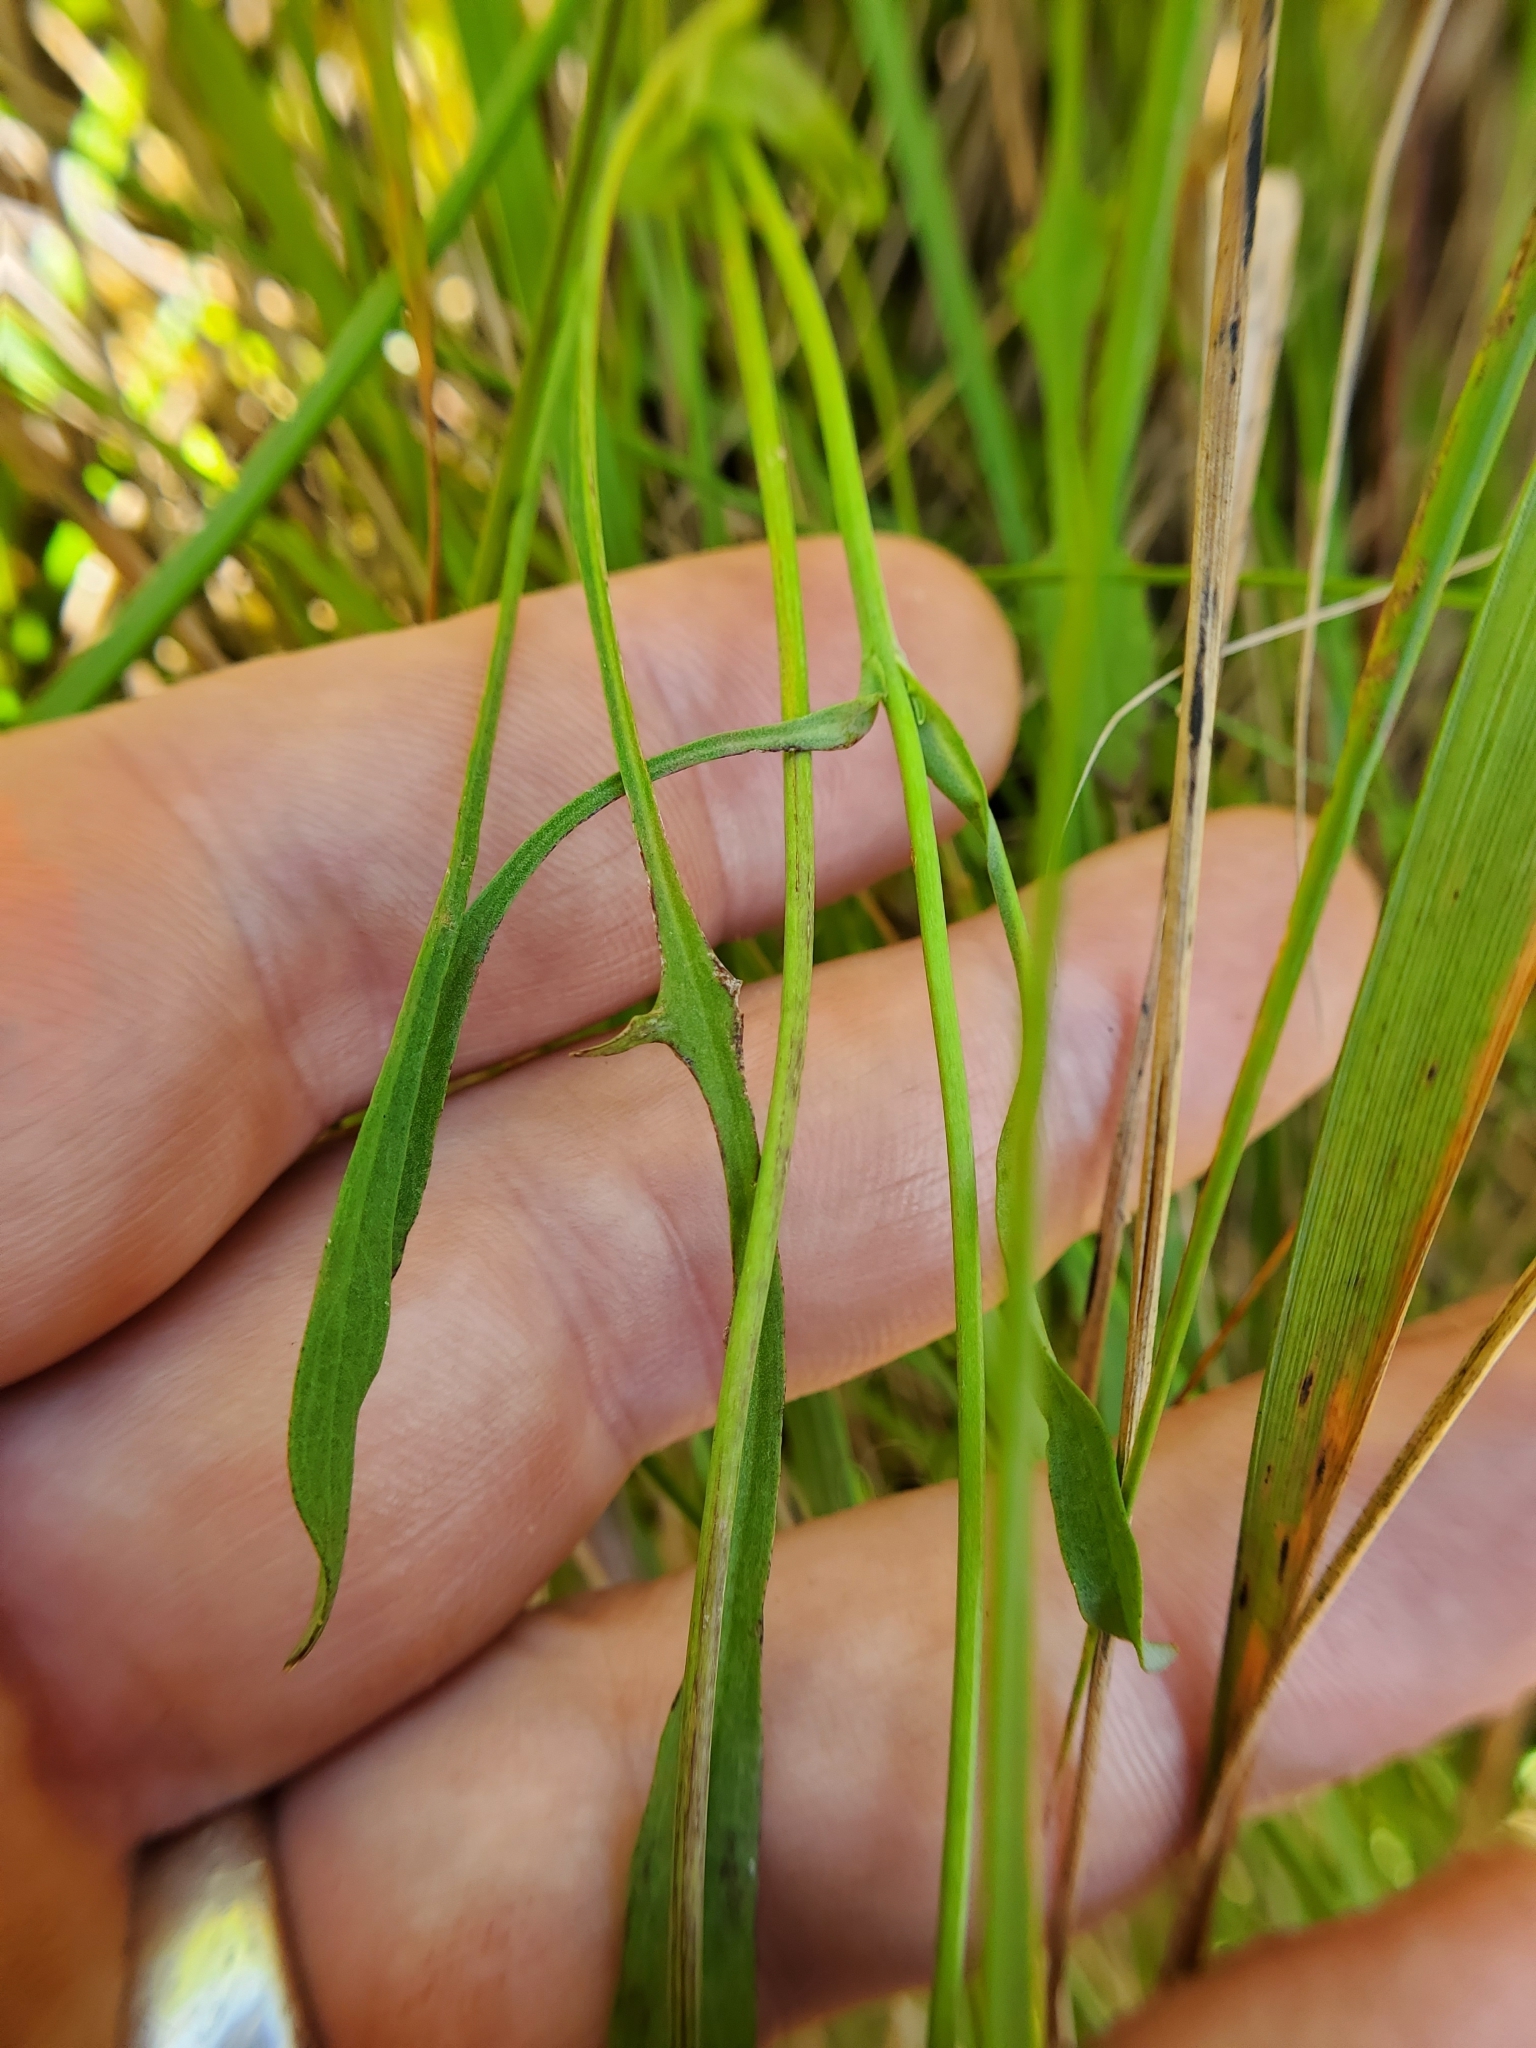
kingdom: Plantae
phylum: Tracheophyta
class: Magnoliopsida
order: Asterales
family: Asteraceae
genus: Krigia
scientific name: Krigia montana
